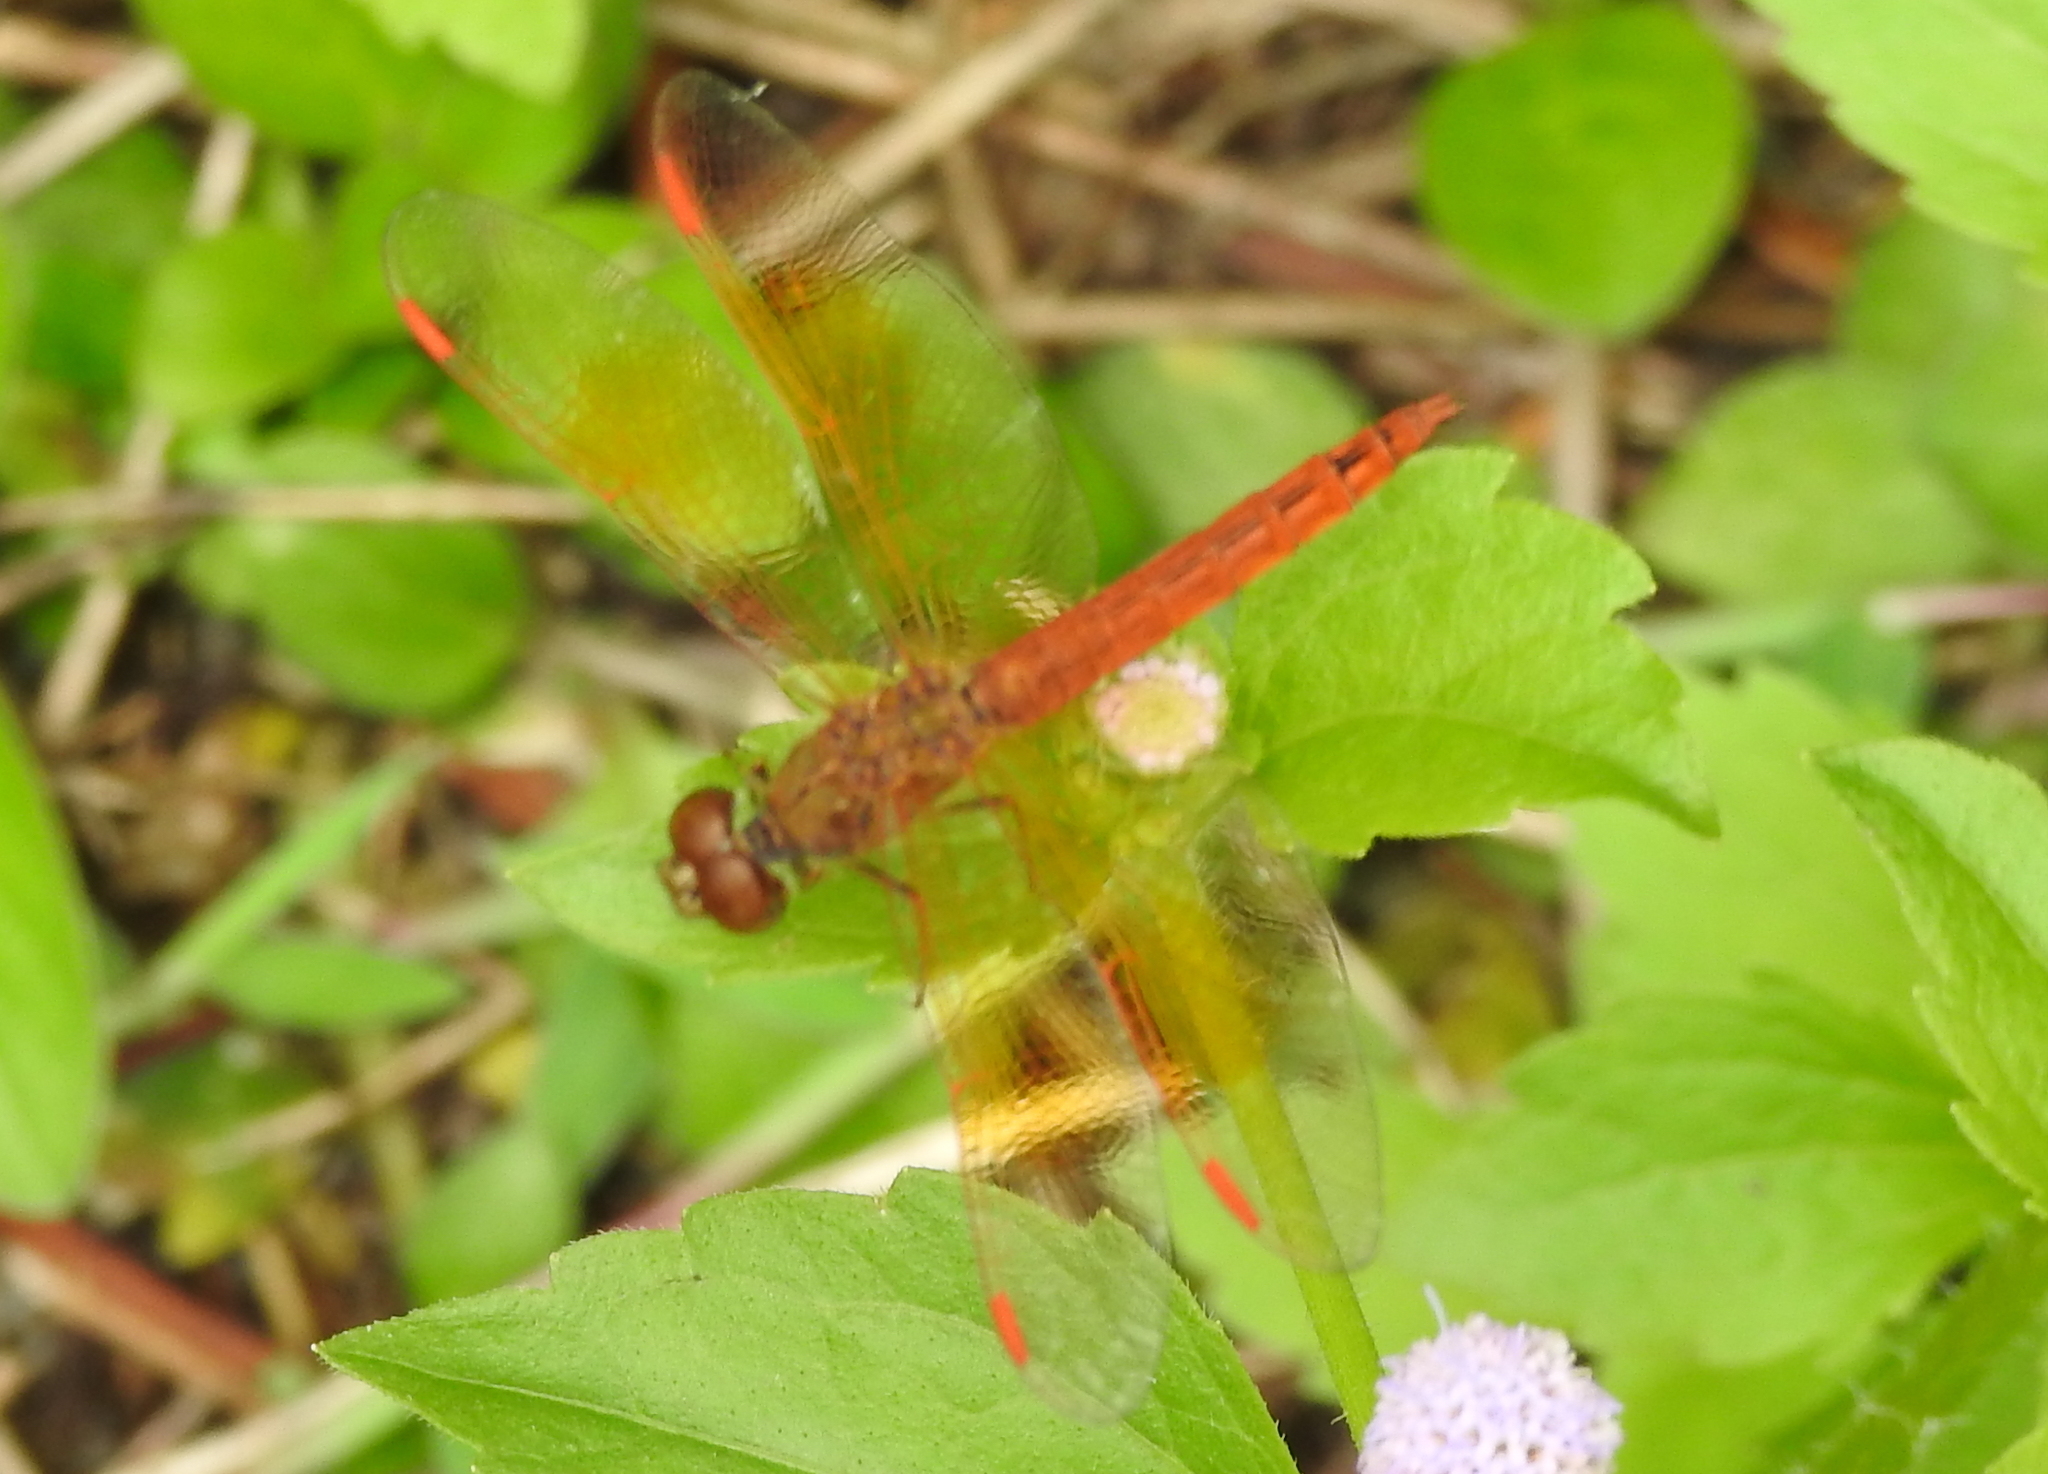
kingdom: Animalia
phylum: Arthropoda
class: Insecta
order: Odonata
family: Libellulidae
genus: Brachythemis
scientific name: Brachythemis contaminata
